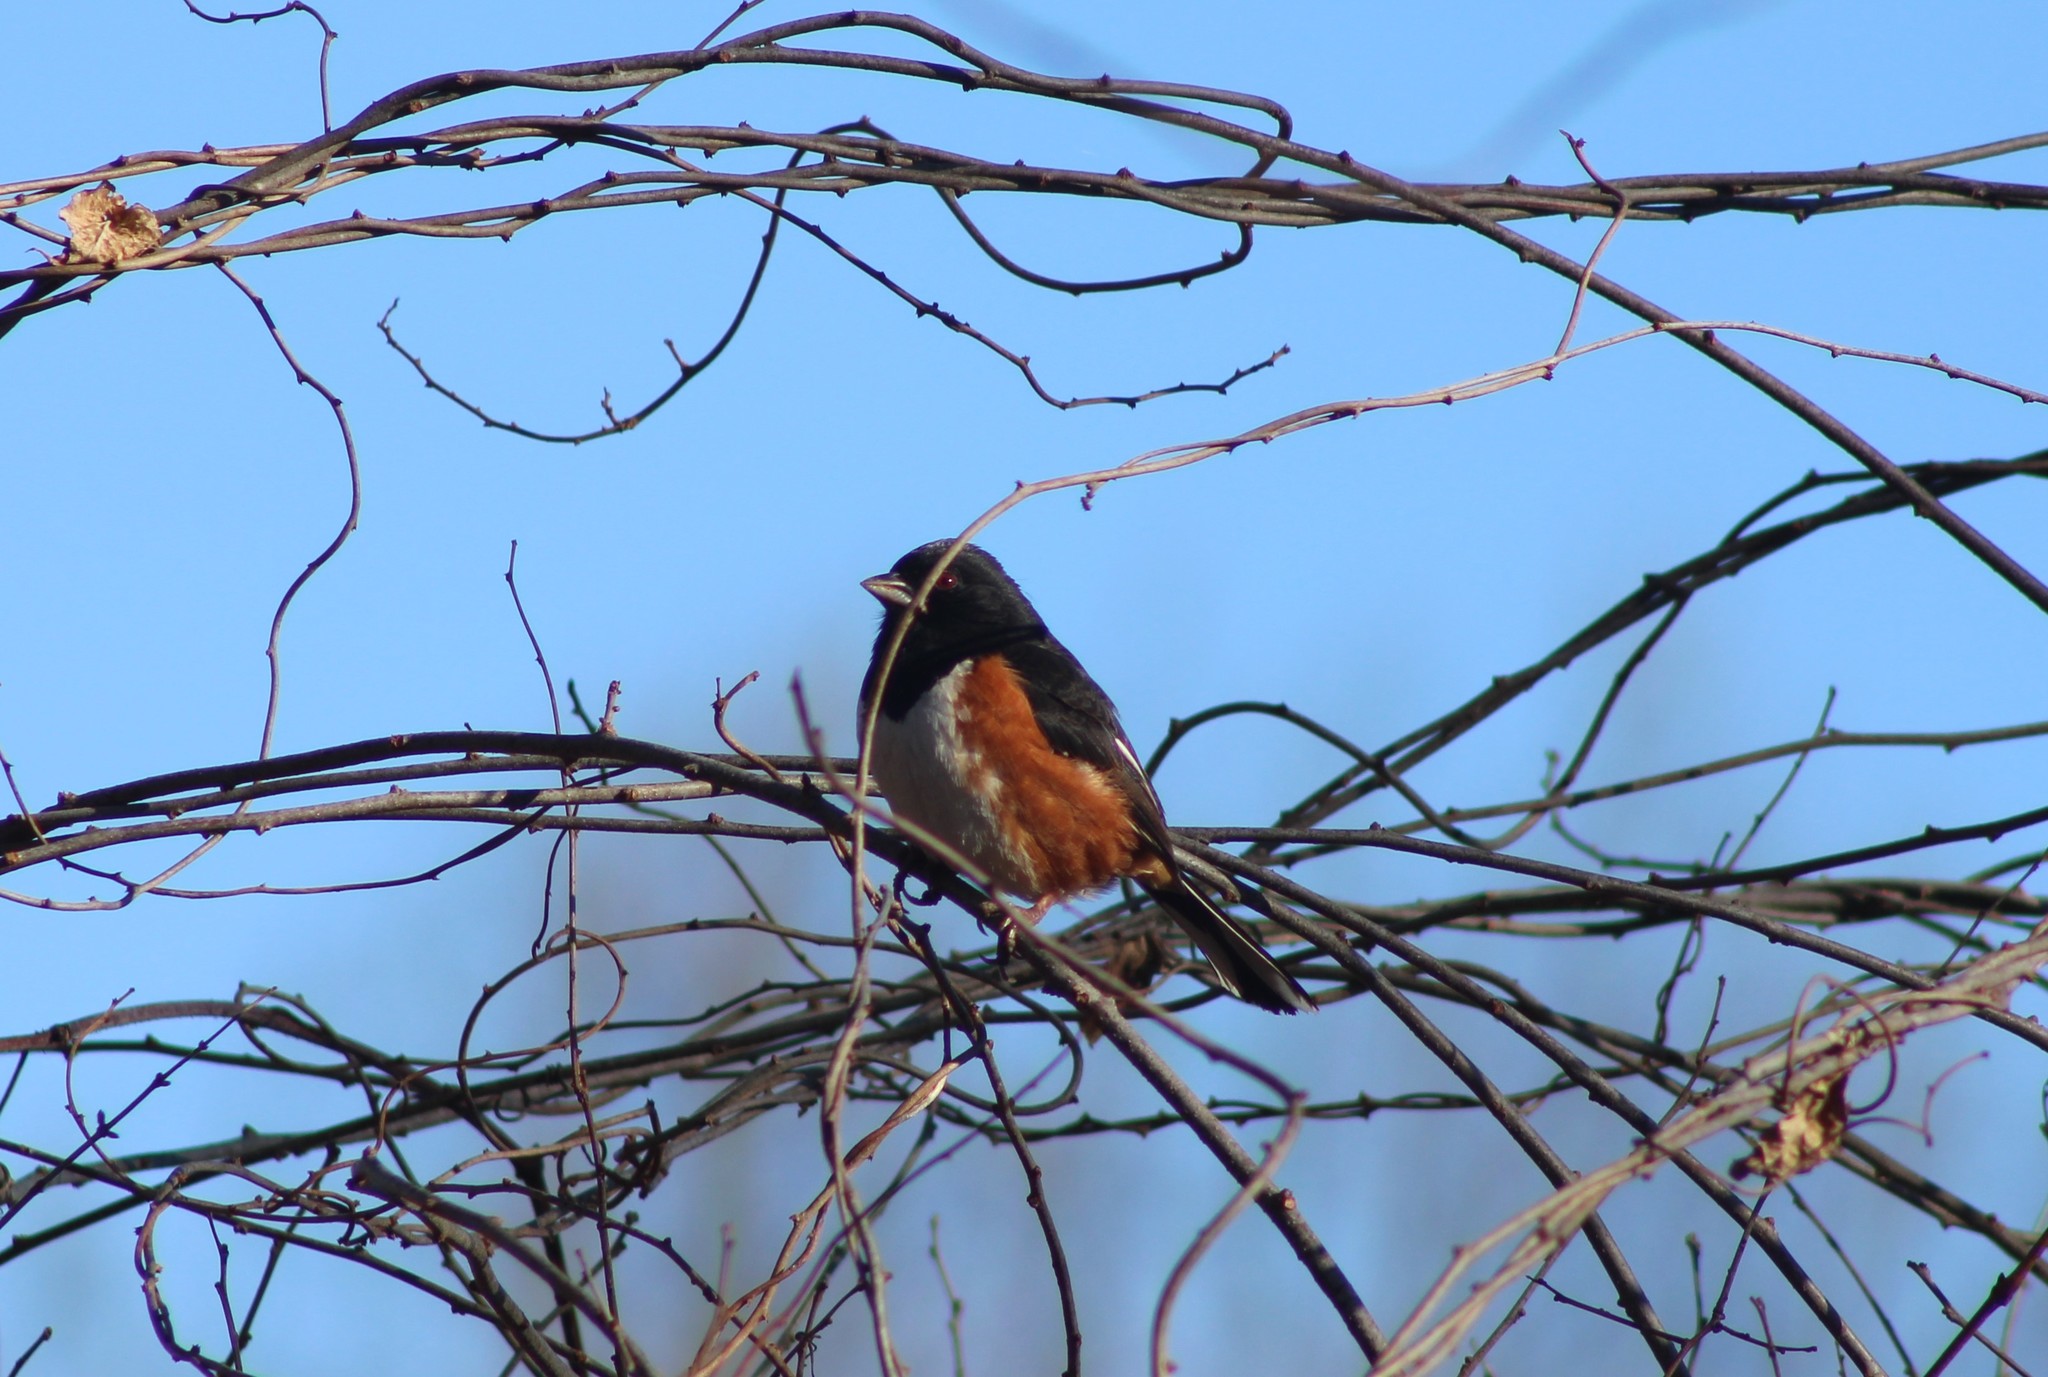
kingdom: Animalia
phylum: Chordata
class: Aves
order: Passeriformes
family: Passerellidae
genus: Pipilo
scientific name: Pipilo erythrophthalmus
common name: Eastern towhee
